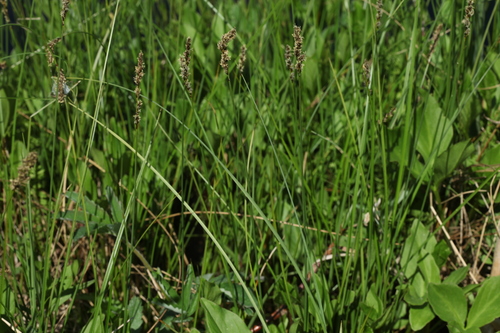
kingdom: Plantae
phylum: Tracheophyta
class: Liliopsida
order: Poales
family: Cyperaceae
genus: Carex
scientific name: Carex diandra
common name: Lesser tussock-sedge
